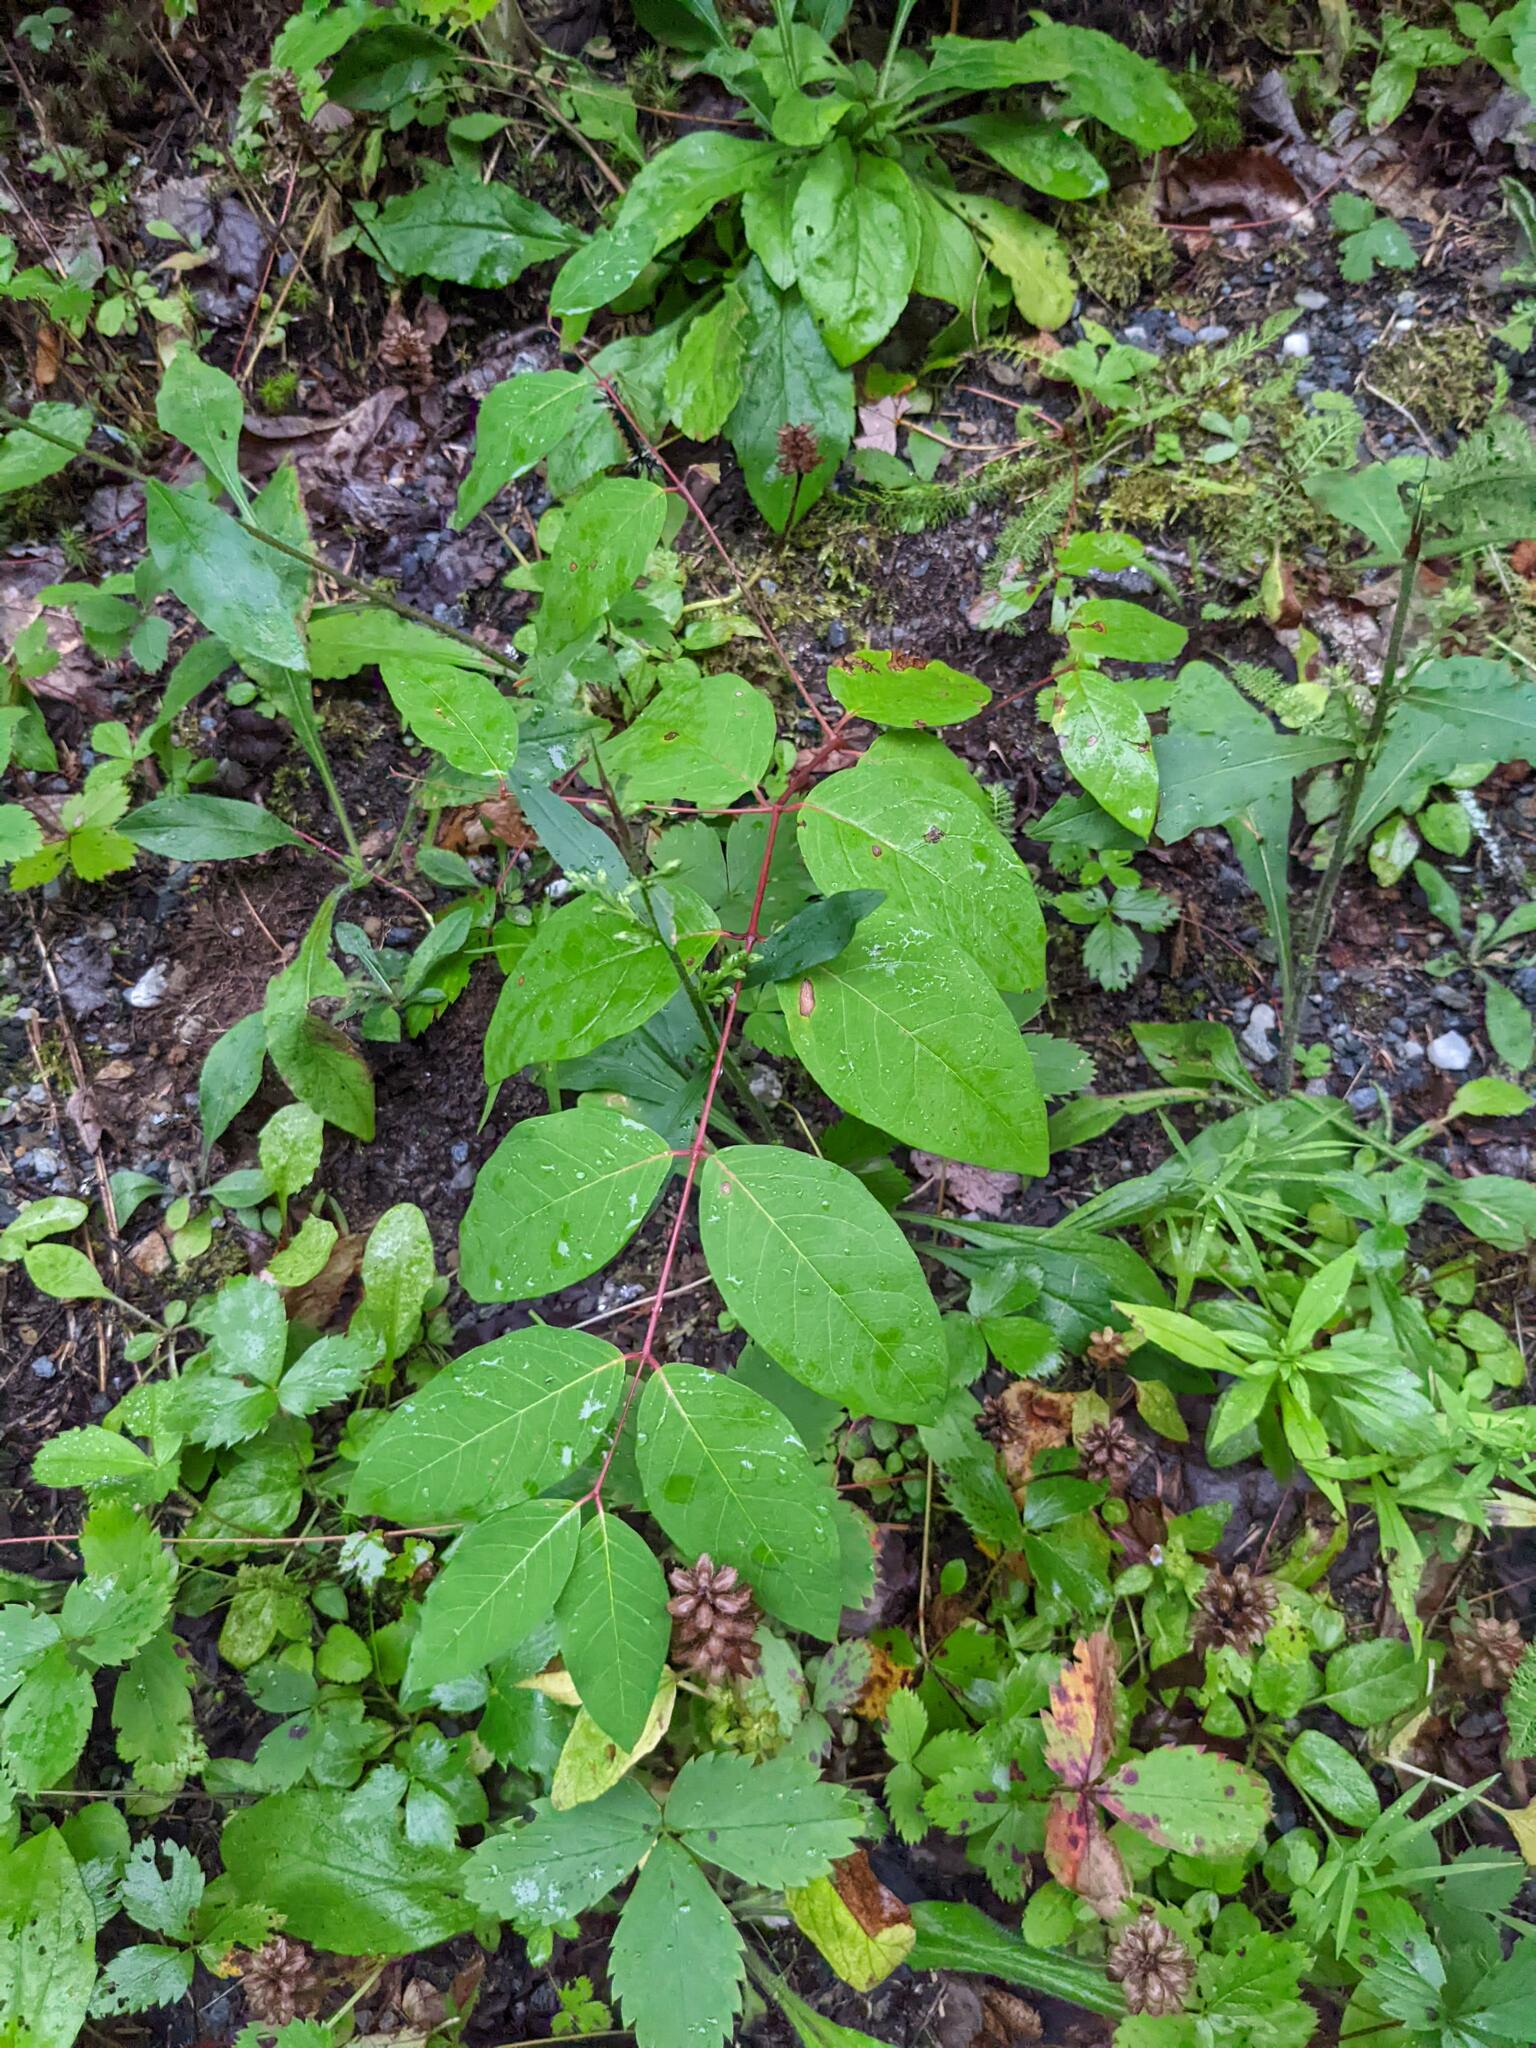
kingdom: Plantae
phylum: Tracheophyta
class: Magnoliopsida
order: Gentianales
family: Apocynaceae
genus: Apocynum
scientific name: Apocynum androsaemifolium
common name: Spreading dogbane
